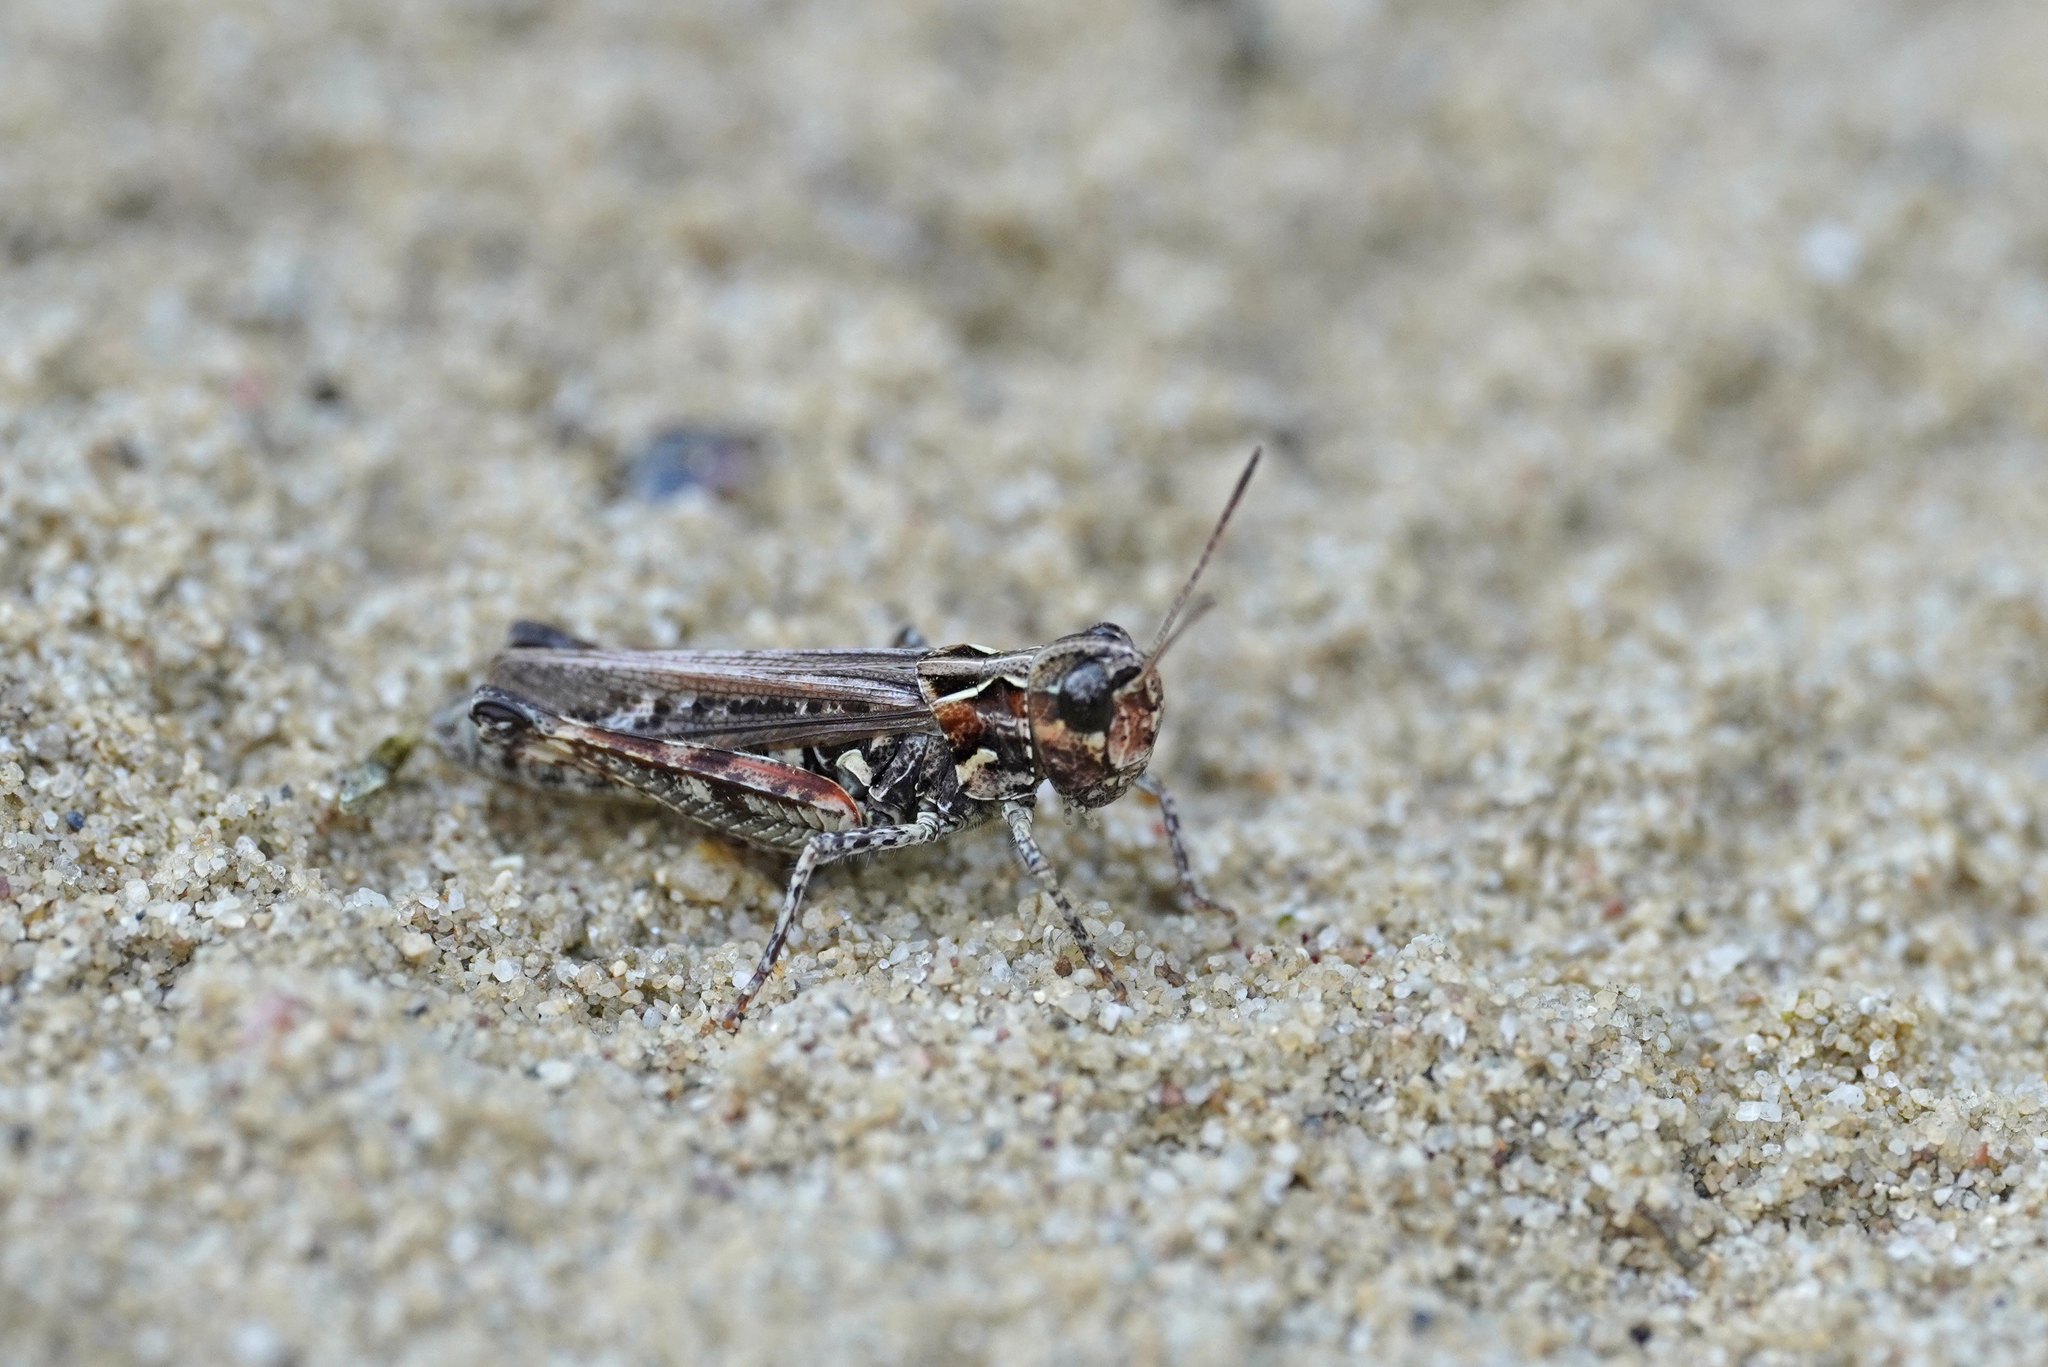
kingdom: Animalia
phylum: Arthropoda
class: Insecta
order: Orthoptera
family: Acrididae
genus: Myrmeleotettix
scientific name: Myrmeleotettix maculatus
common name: Mottled grasshopper
